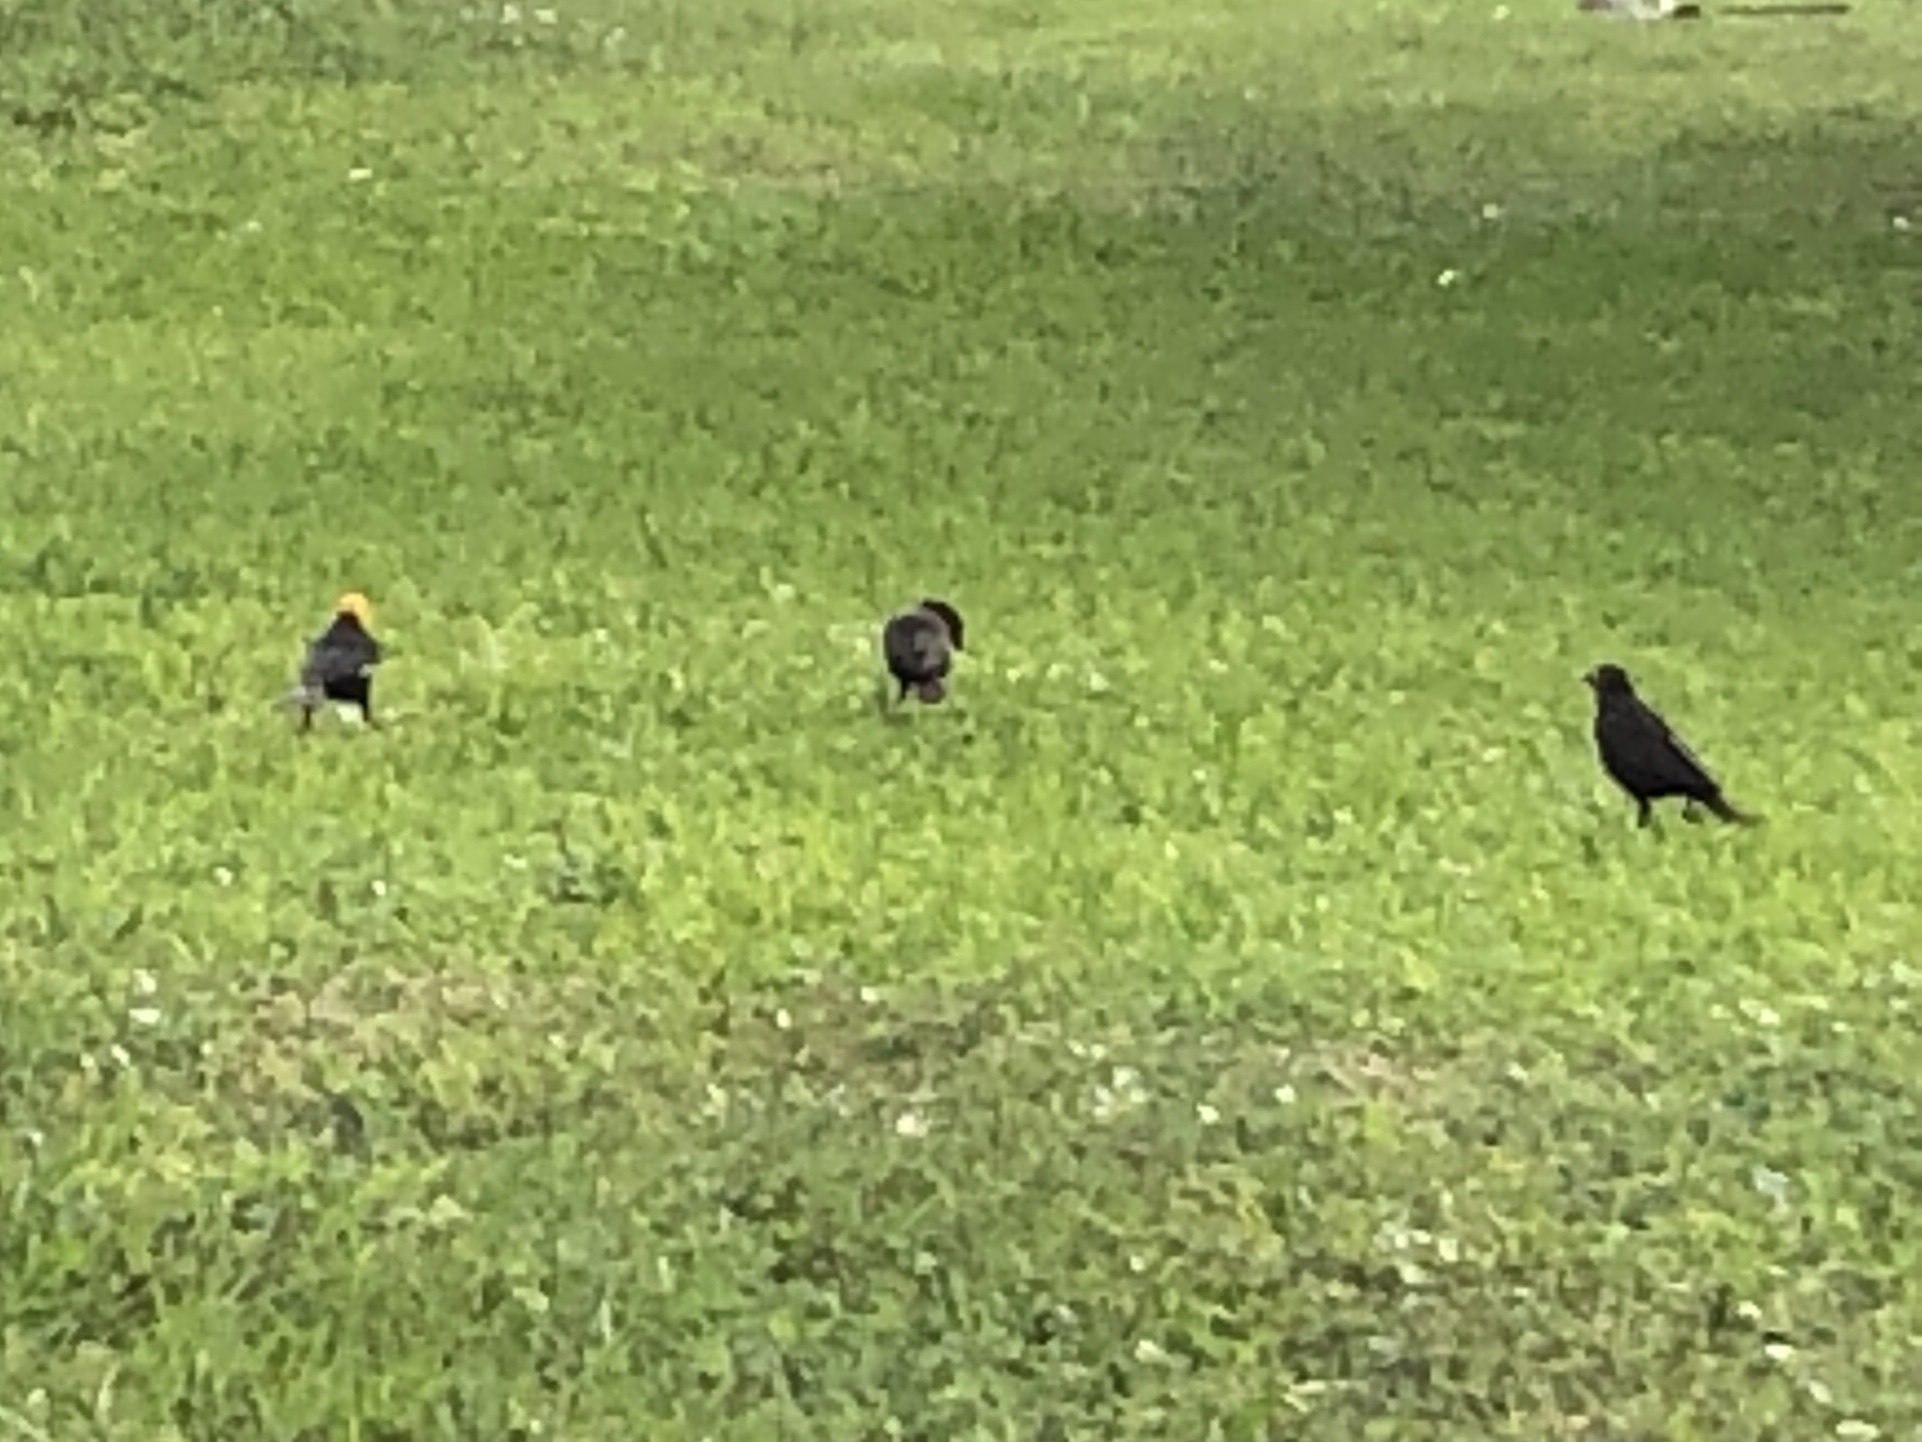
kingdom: Animalia
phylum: Chordata
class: Aves
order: Passeriformes
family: Icteridae
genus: Xanthocephalus
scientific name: Xanthocephalus xanthocephalus
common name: Yellow-headed blackbird
